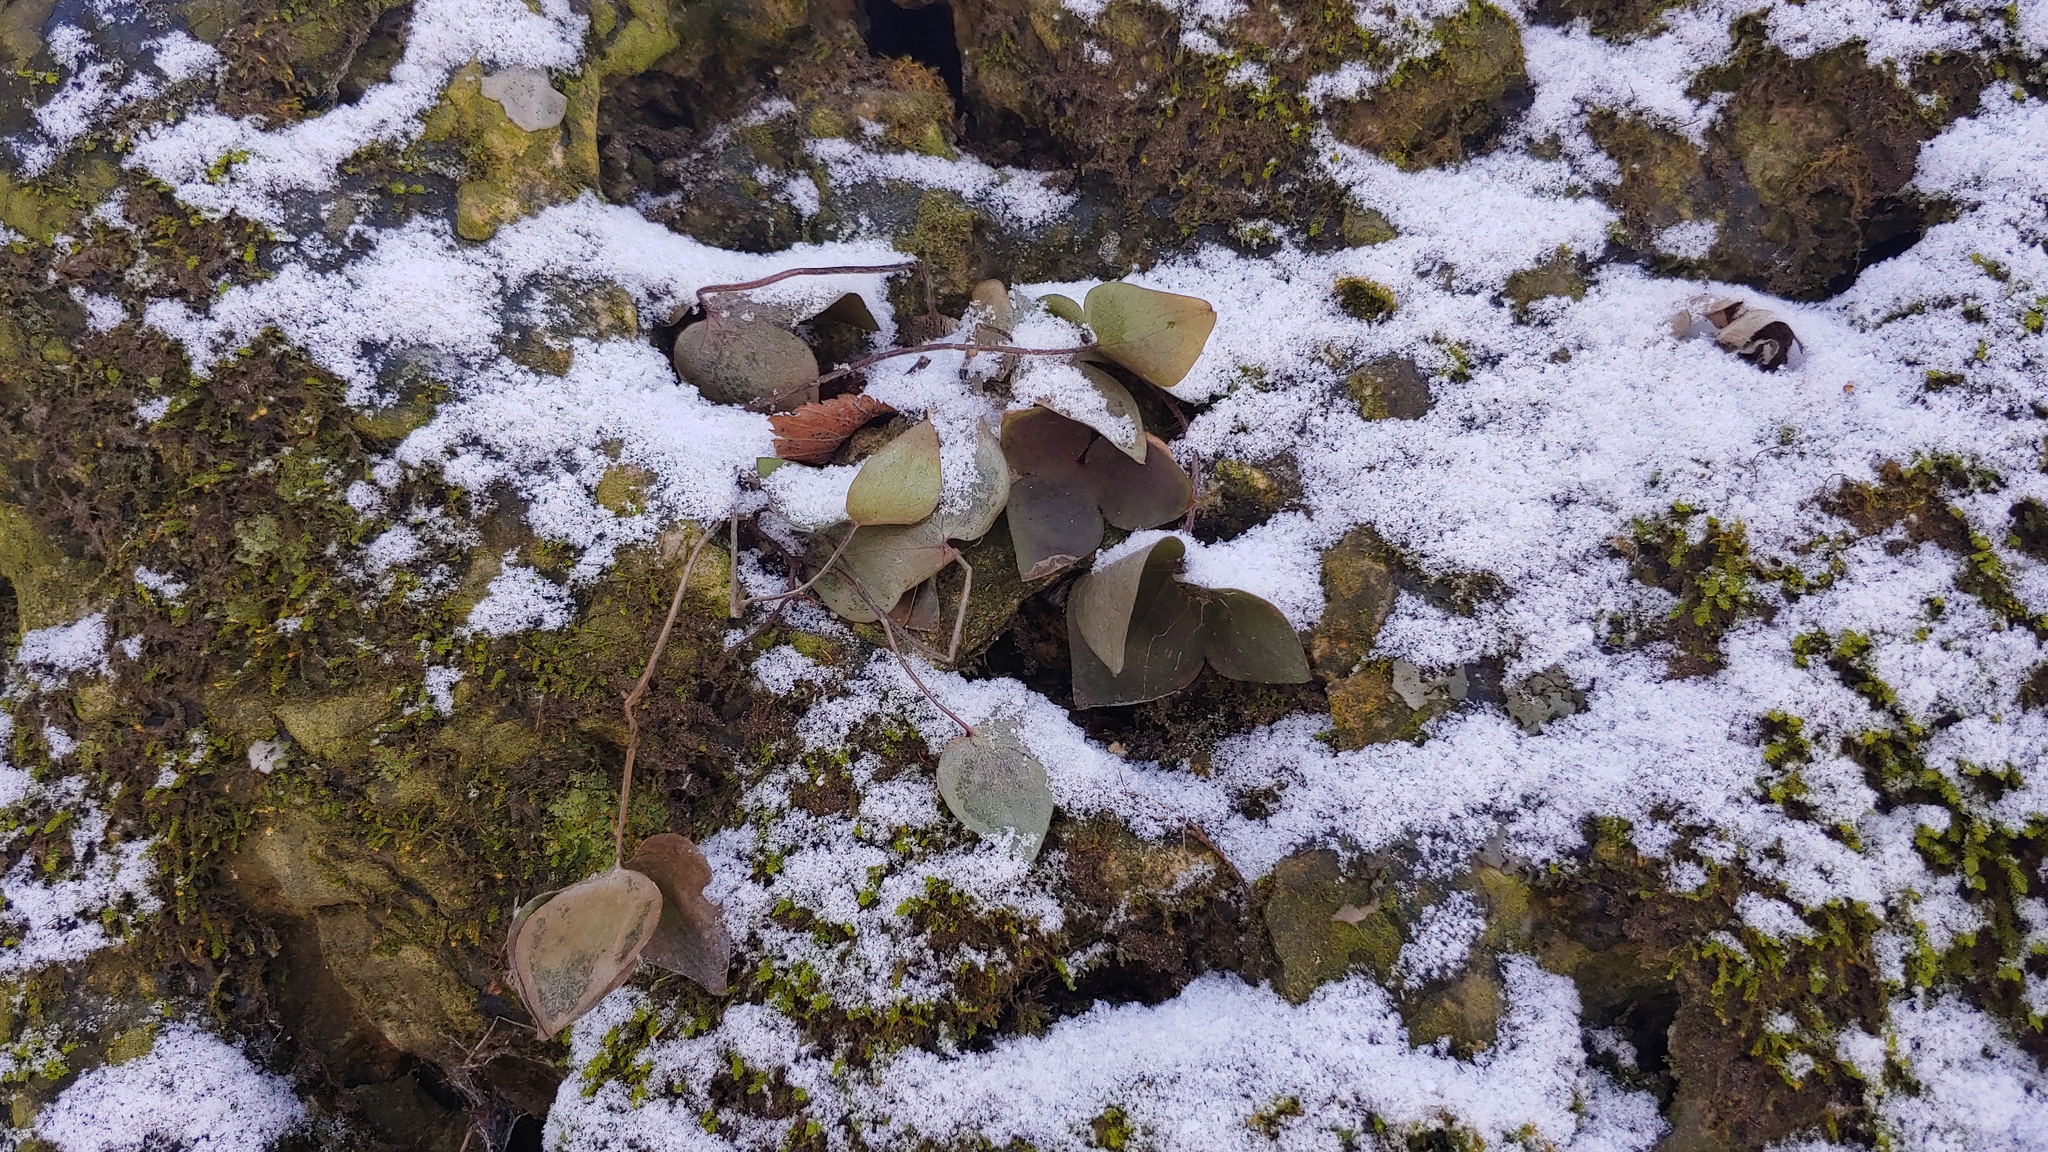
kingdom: Plantae
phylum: Tracheophyta
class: Magnoliopsida
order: Ranunculales
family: Ranunculaceae
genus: Hepatica
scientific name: Hepatica acutiloba
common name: Sharp-lobed hepatica
